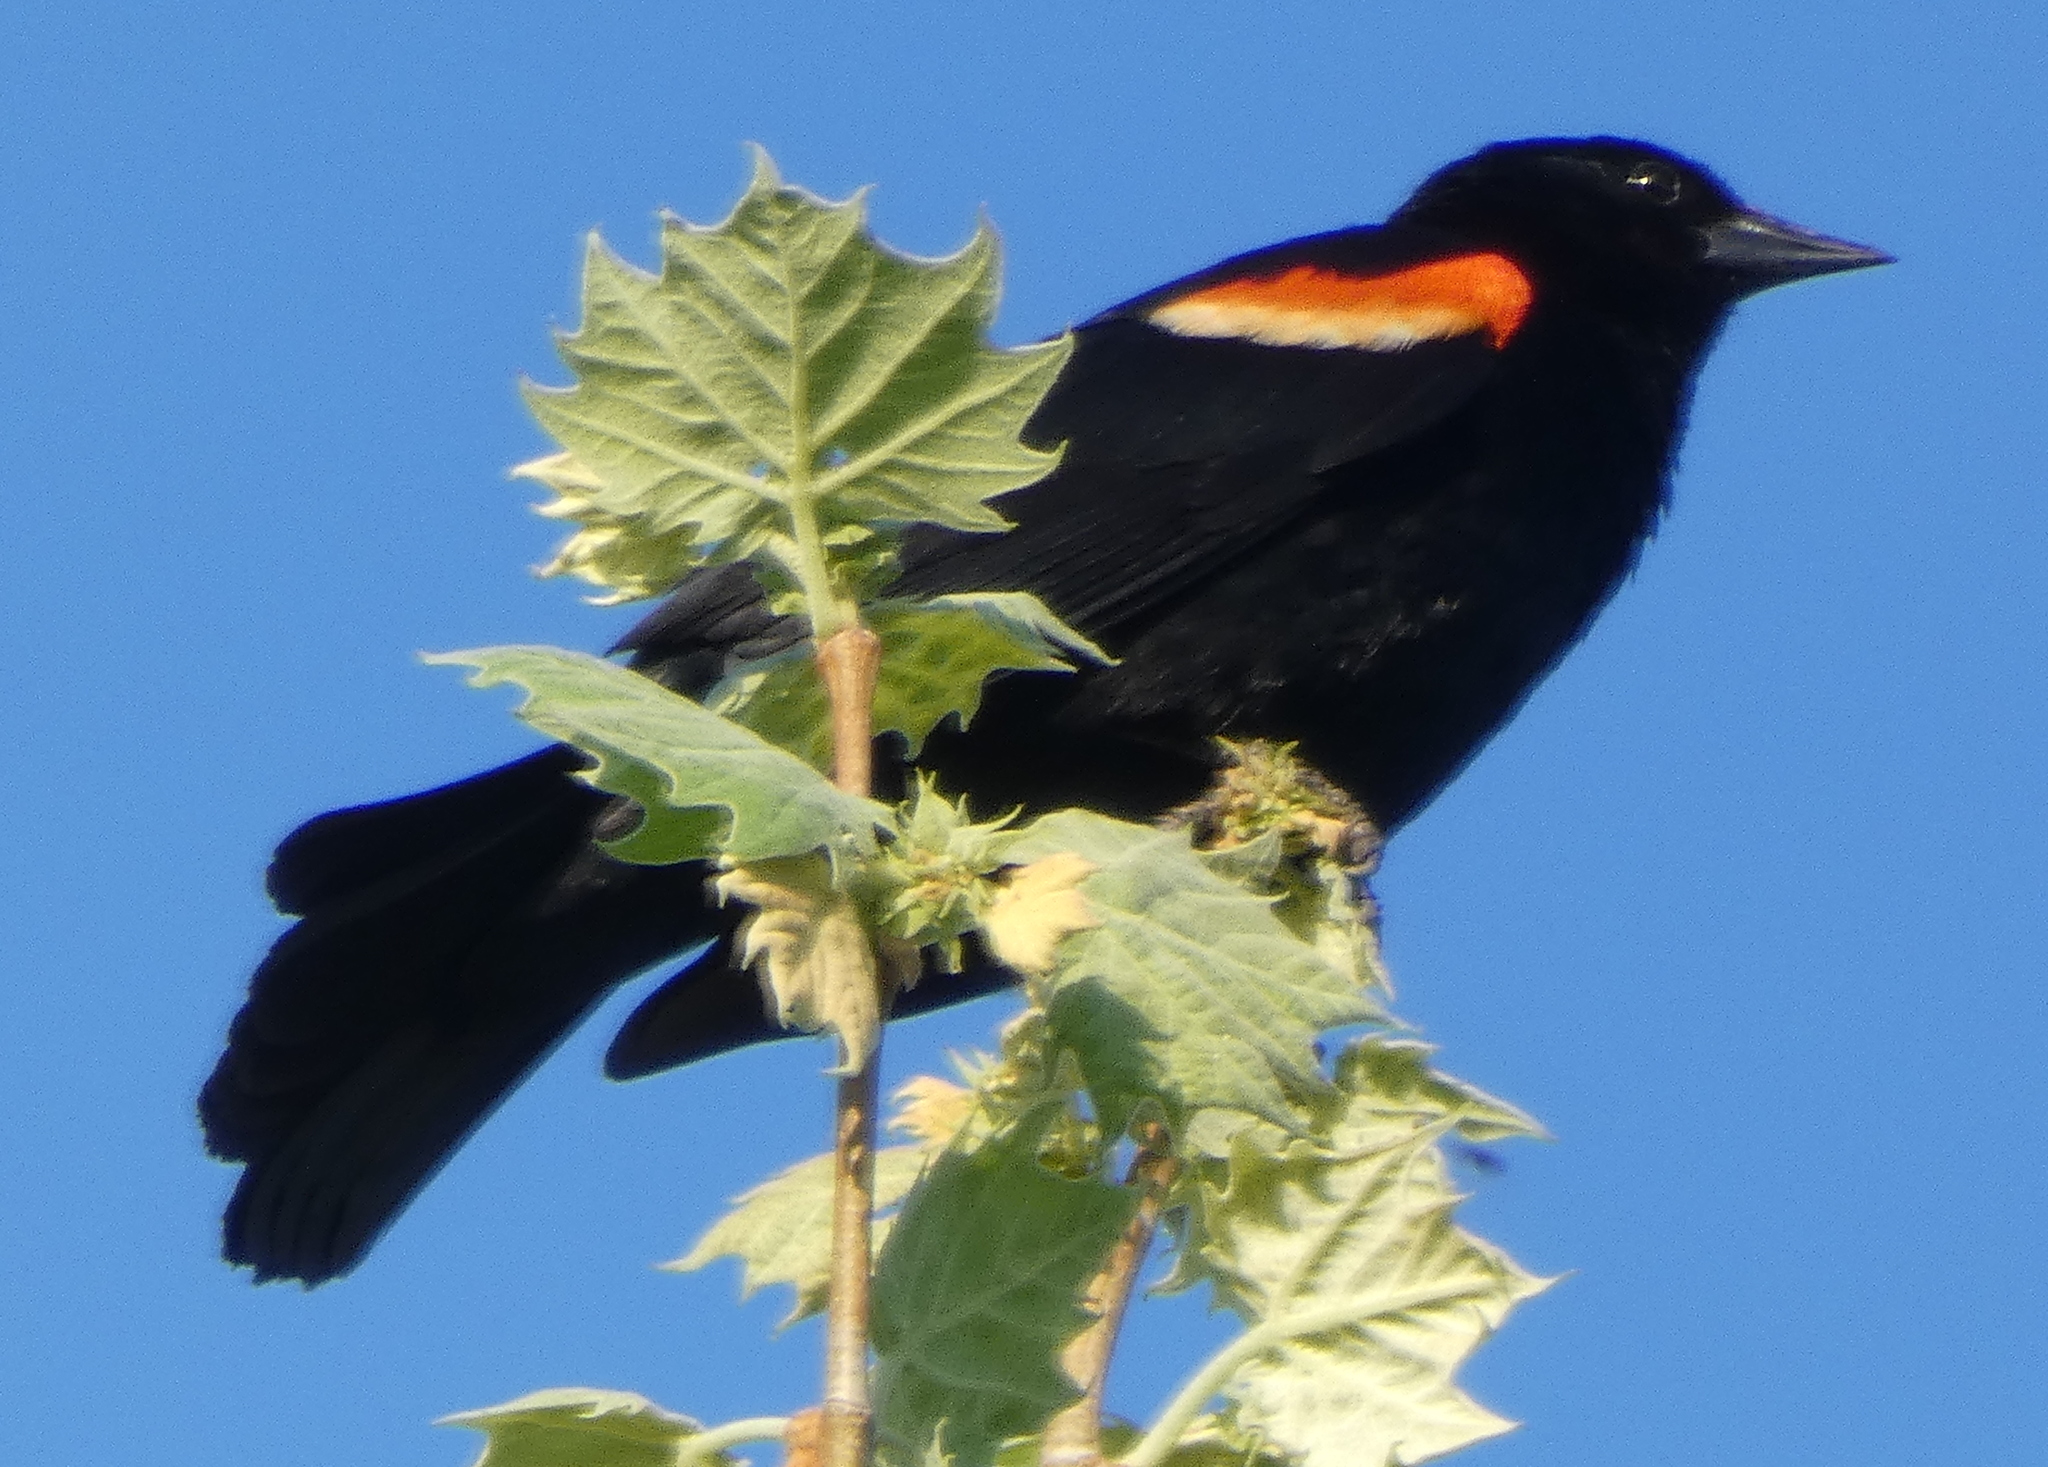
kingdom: Animalia
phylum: Chordata
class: Aves
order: Passeriformes
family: Icteridae
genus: Agelaius
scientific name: Agelaius phoeniceus
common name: Red-winged blackbird
